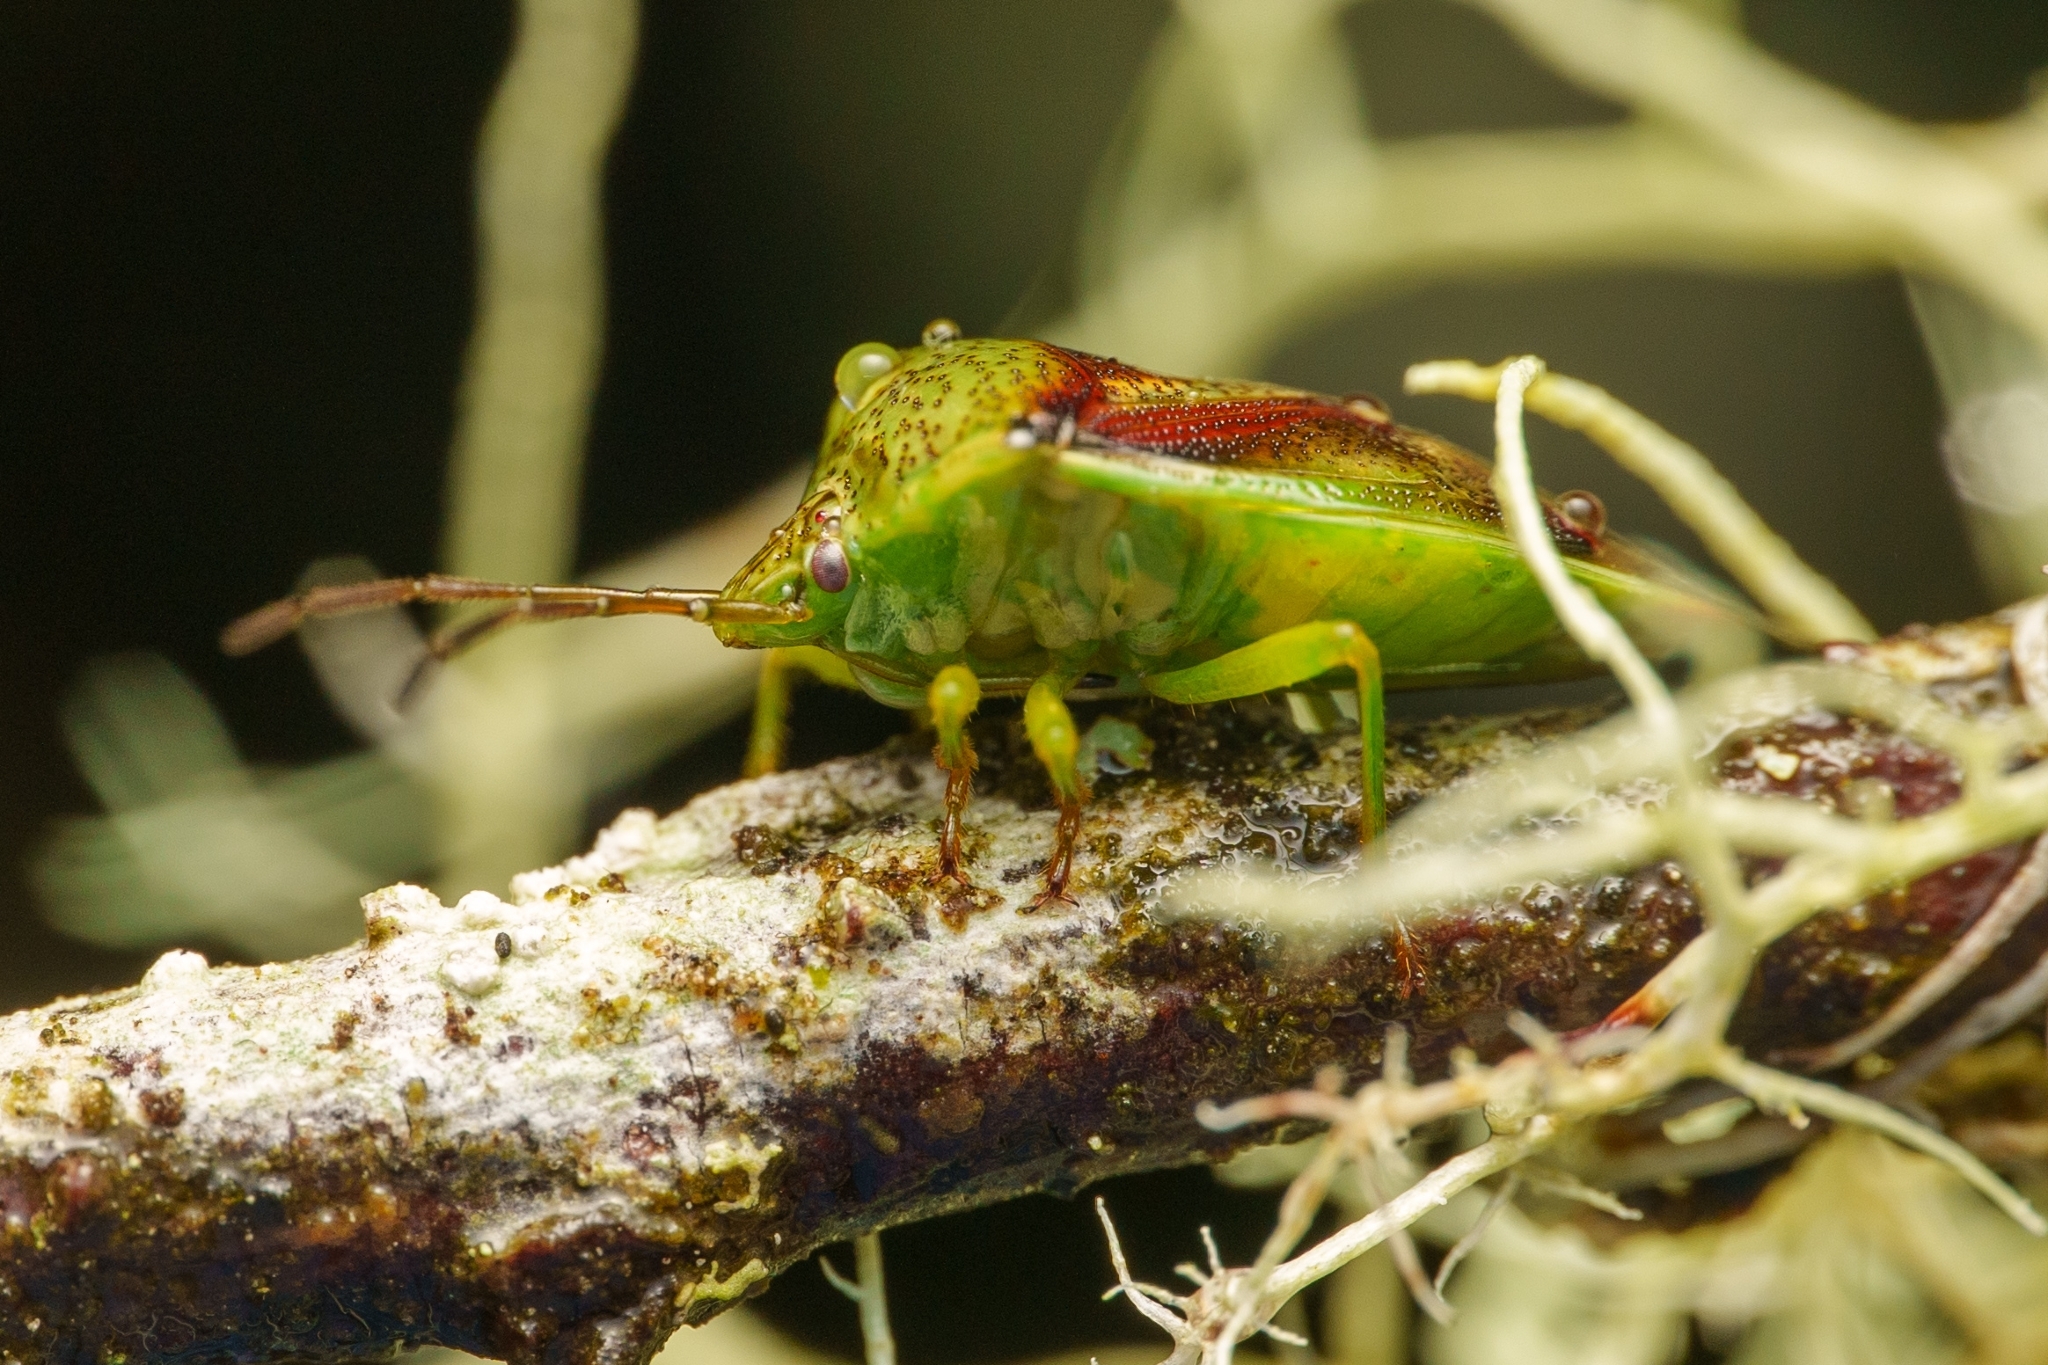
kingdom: Animalia
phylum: Arthropoda
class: Insecta
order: Hemiptera
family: Acanthosomatidae
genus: Elasmostethus
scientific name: Elasmostethus cruciatus
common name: Red-cross shield bug
